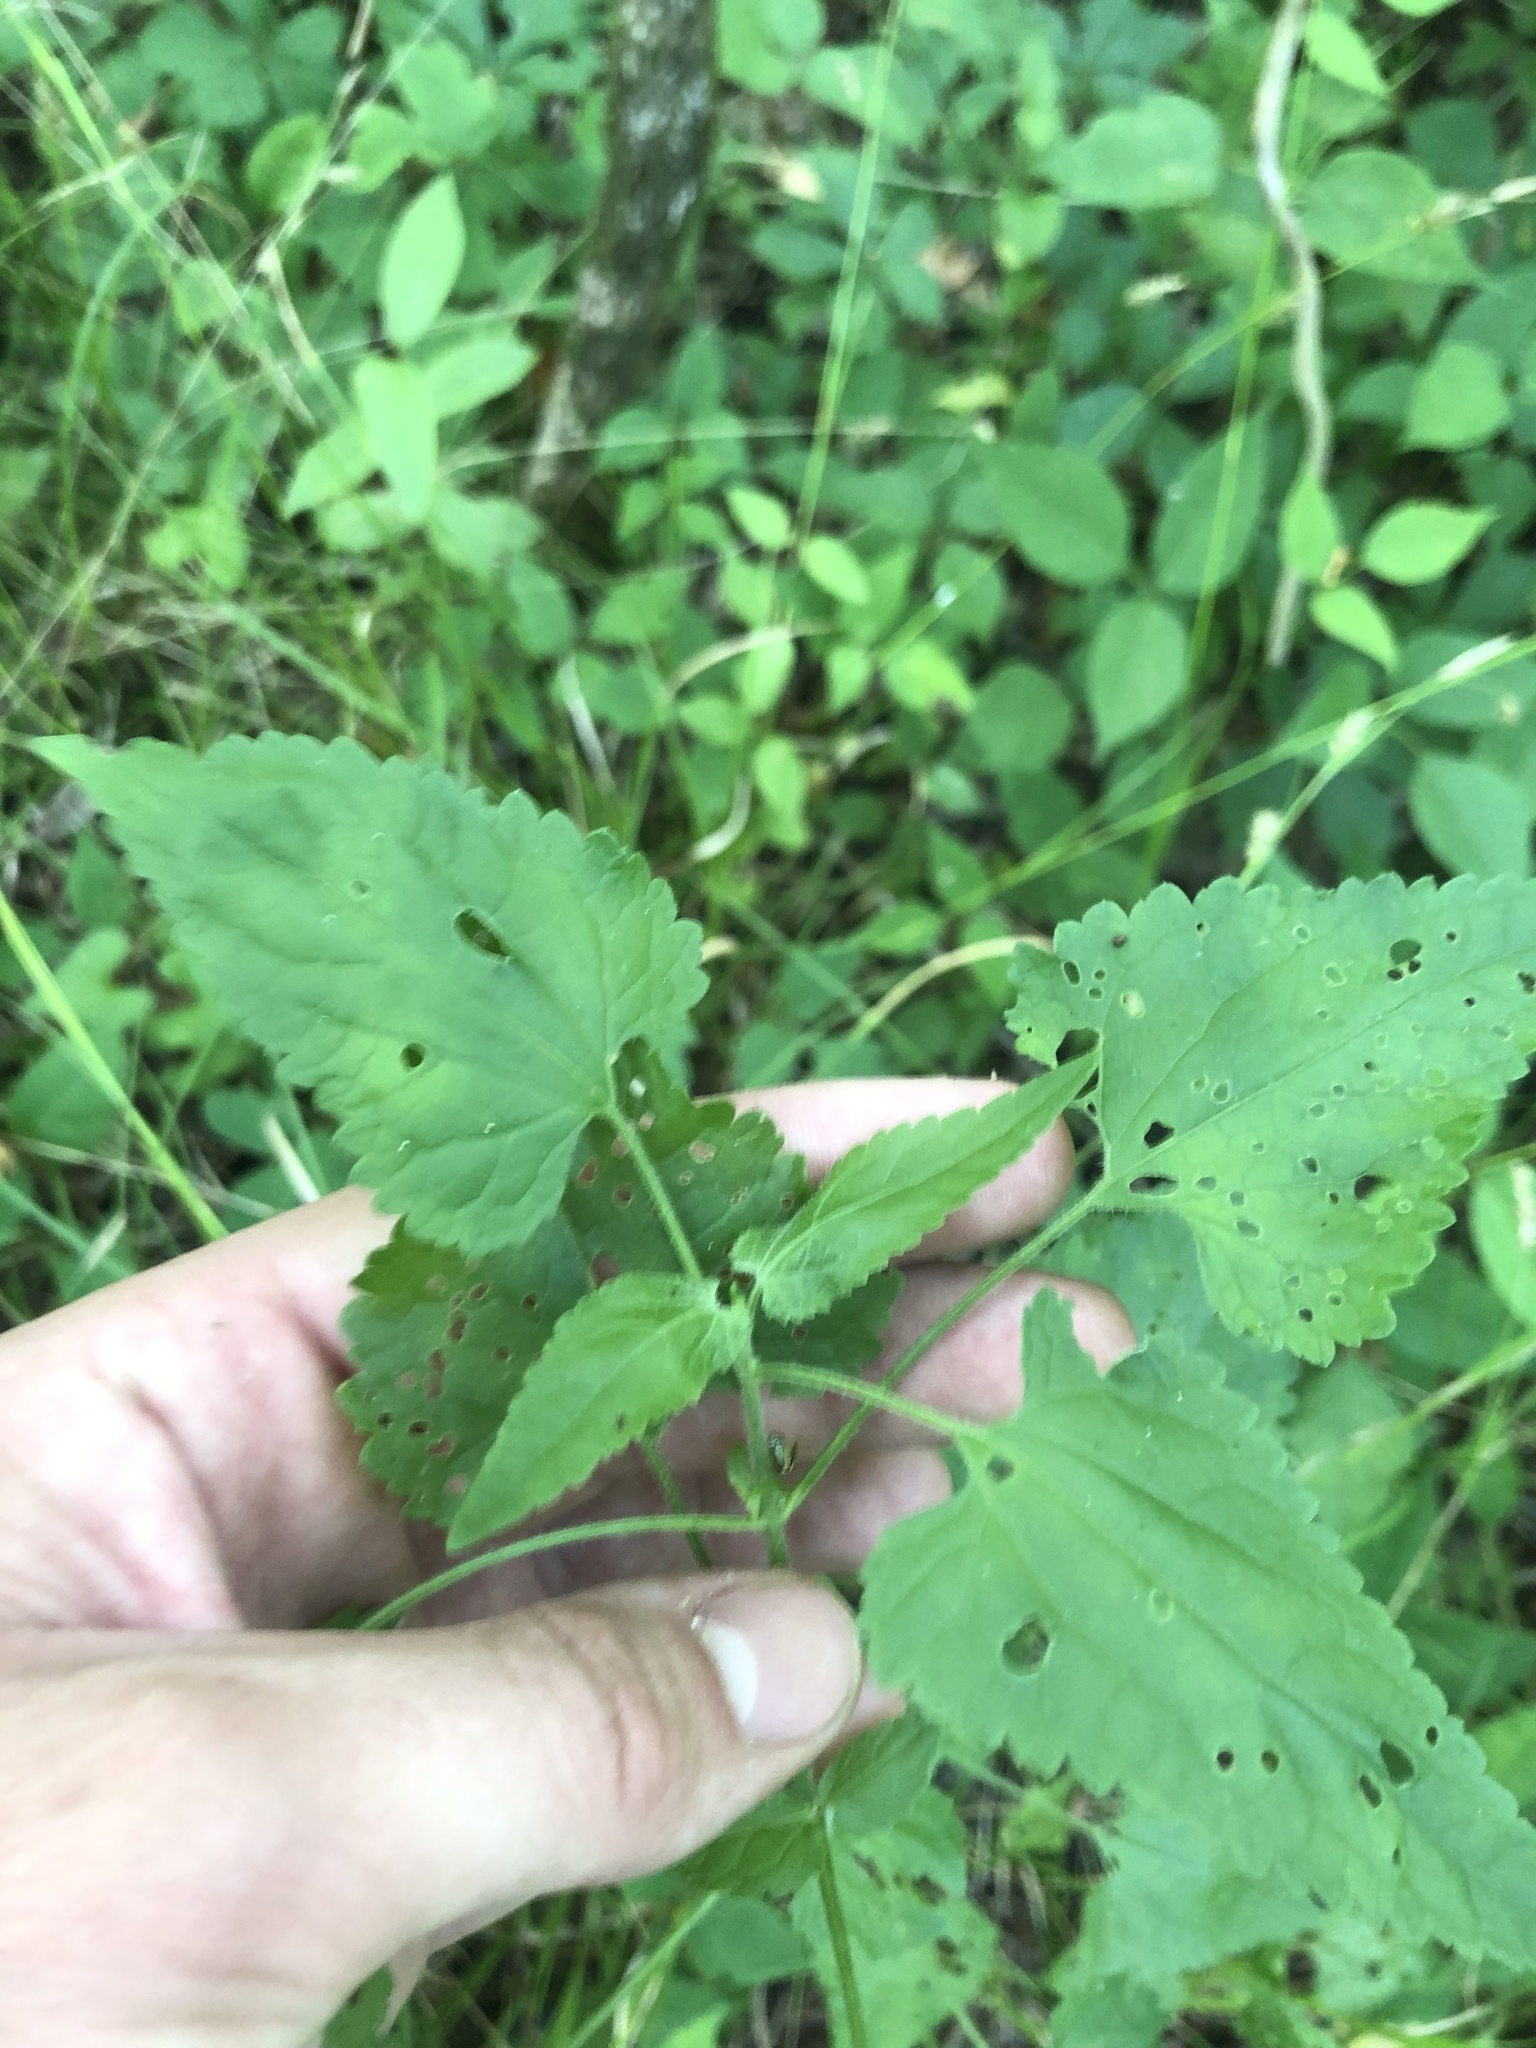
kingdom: Plantae
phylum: Tracheophyta
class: Magnoliopsida
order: Asterales
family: Asteraceae
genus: Fleischmannia
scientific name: Fleischmannia incarnata
